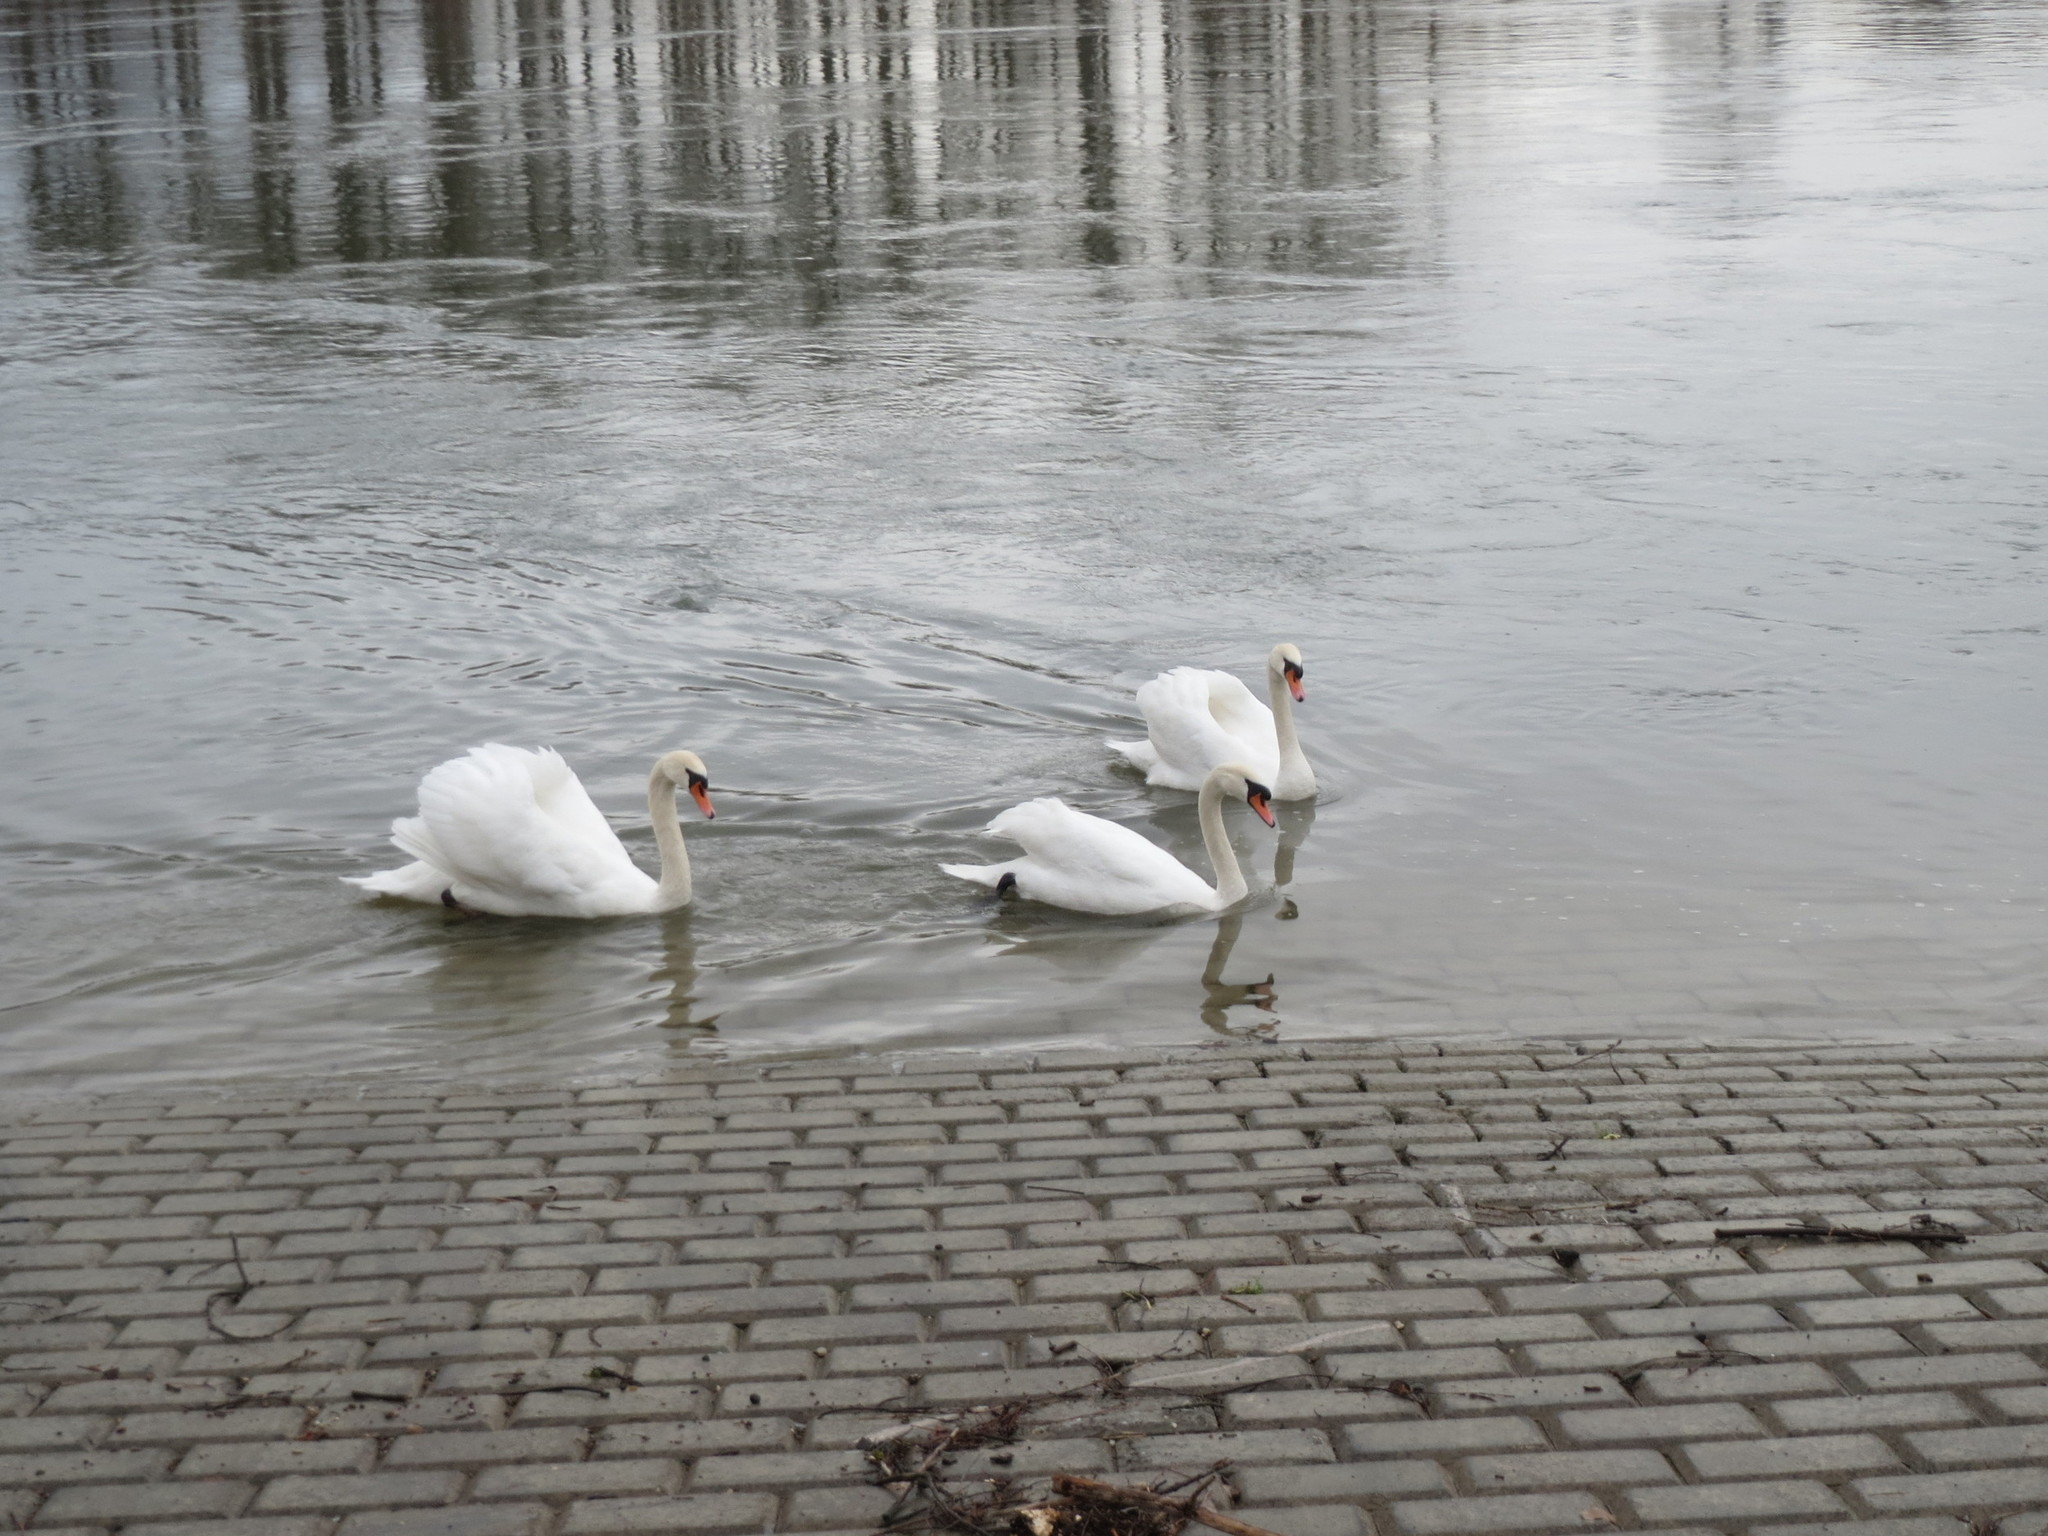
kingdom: Animalia
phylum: Chordata
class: Aves
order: Anseriformes
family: Anatidae
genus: Cygnus
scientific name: Cygnus olor
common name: Mute swan
